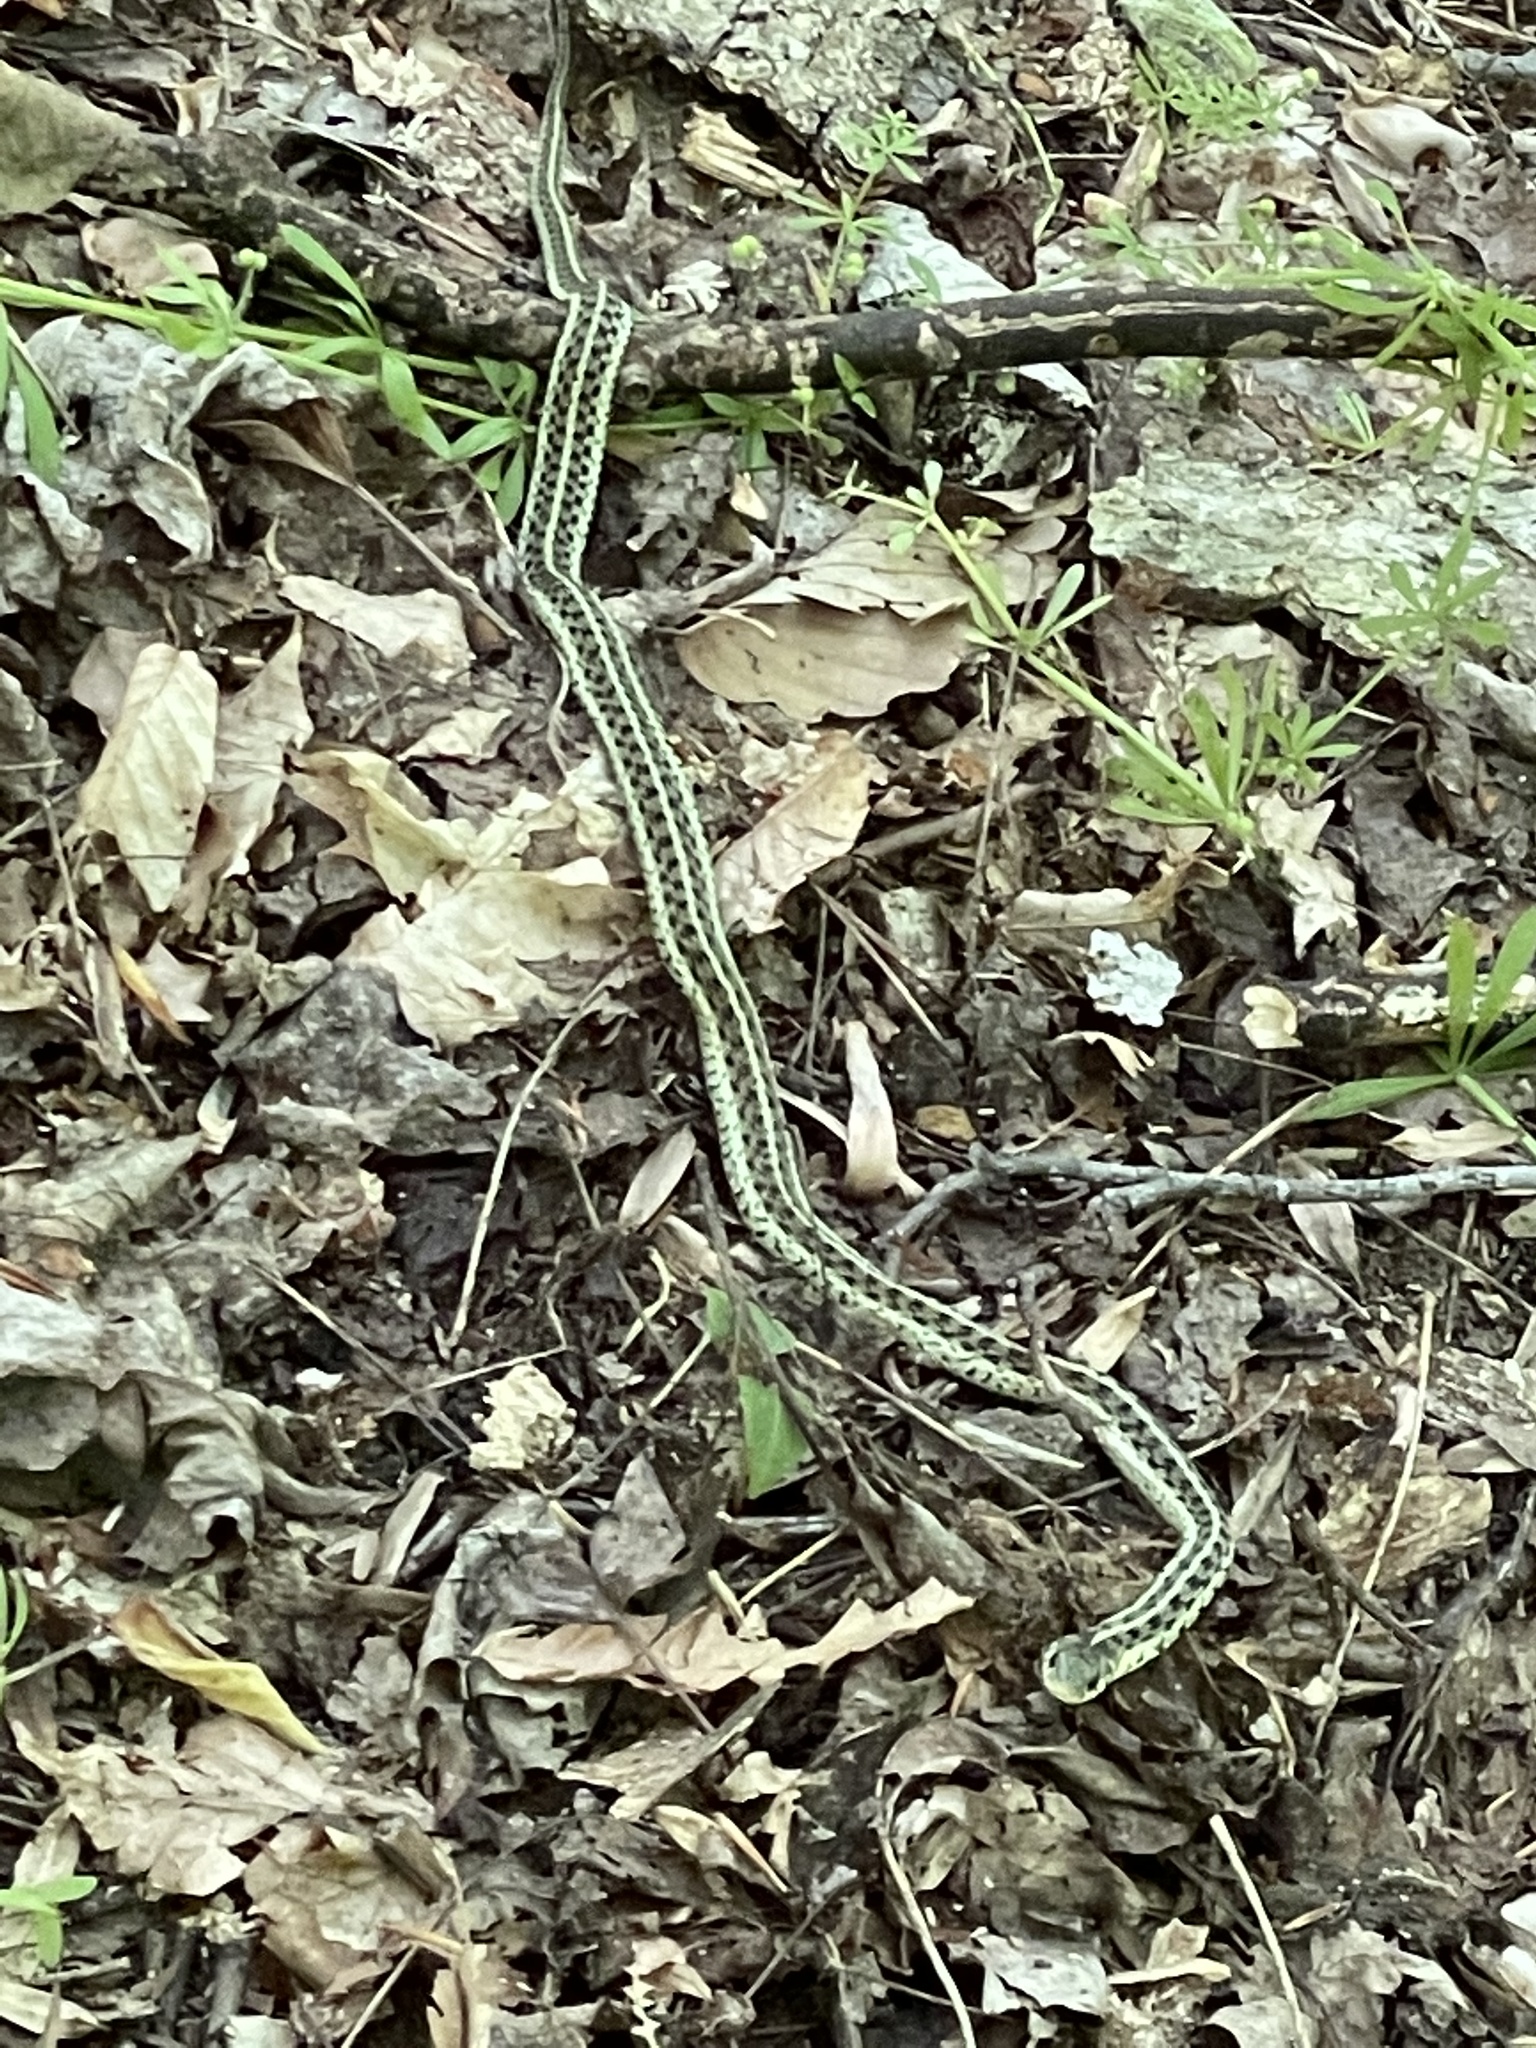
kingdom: Animalia
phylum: Chordata
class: Squamata
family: Colubridae
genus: Thamnophis
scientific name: Thamnophis sirtalis
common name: Common garter snake
